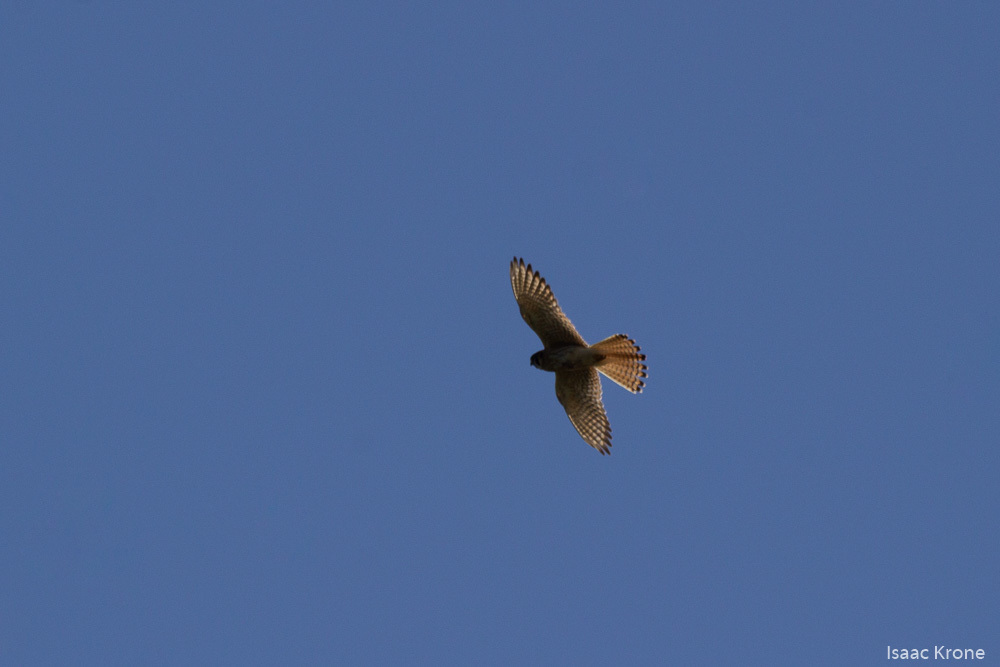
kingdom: Animalia
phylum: Chordata
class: Aves
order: Falconiformes
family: Falconidae
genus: Falco
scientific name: Falco sparverius
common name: American kestrel
